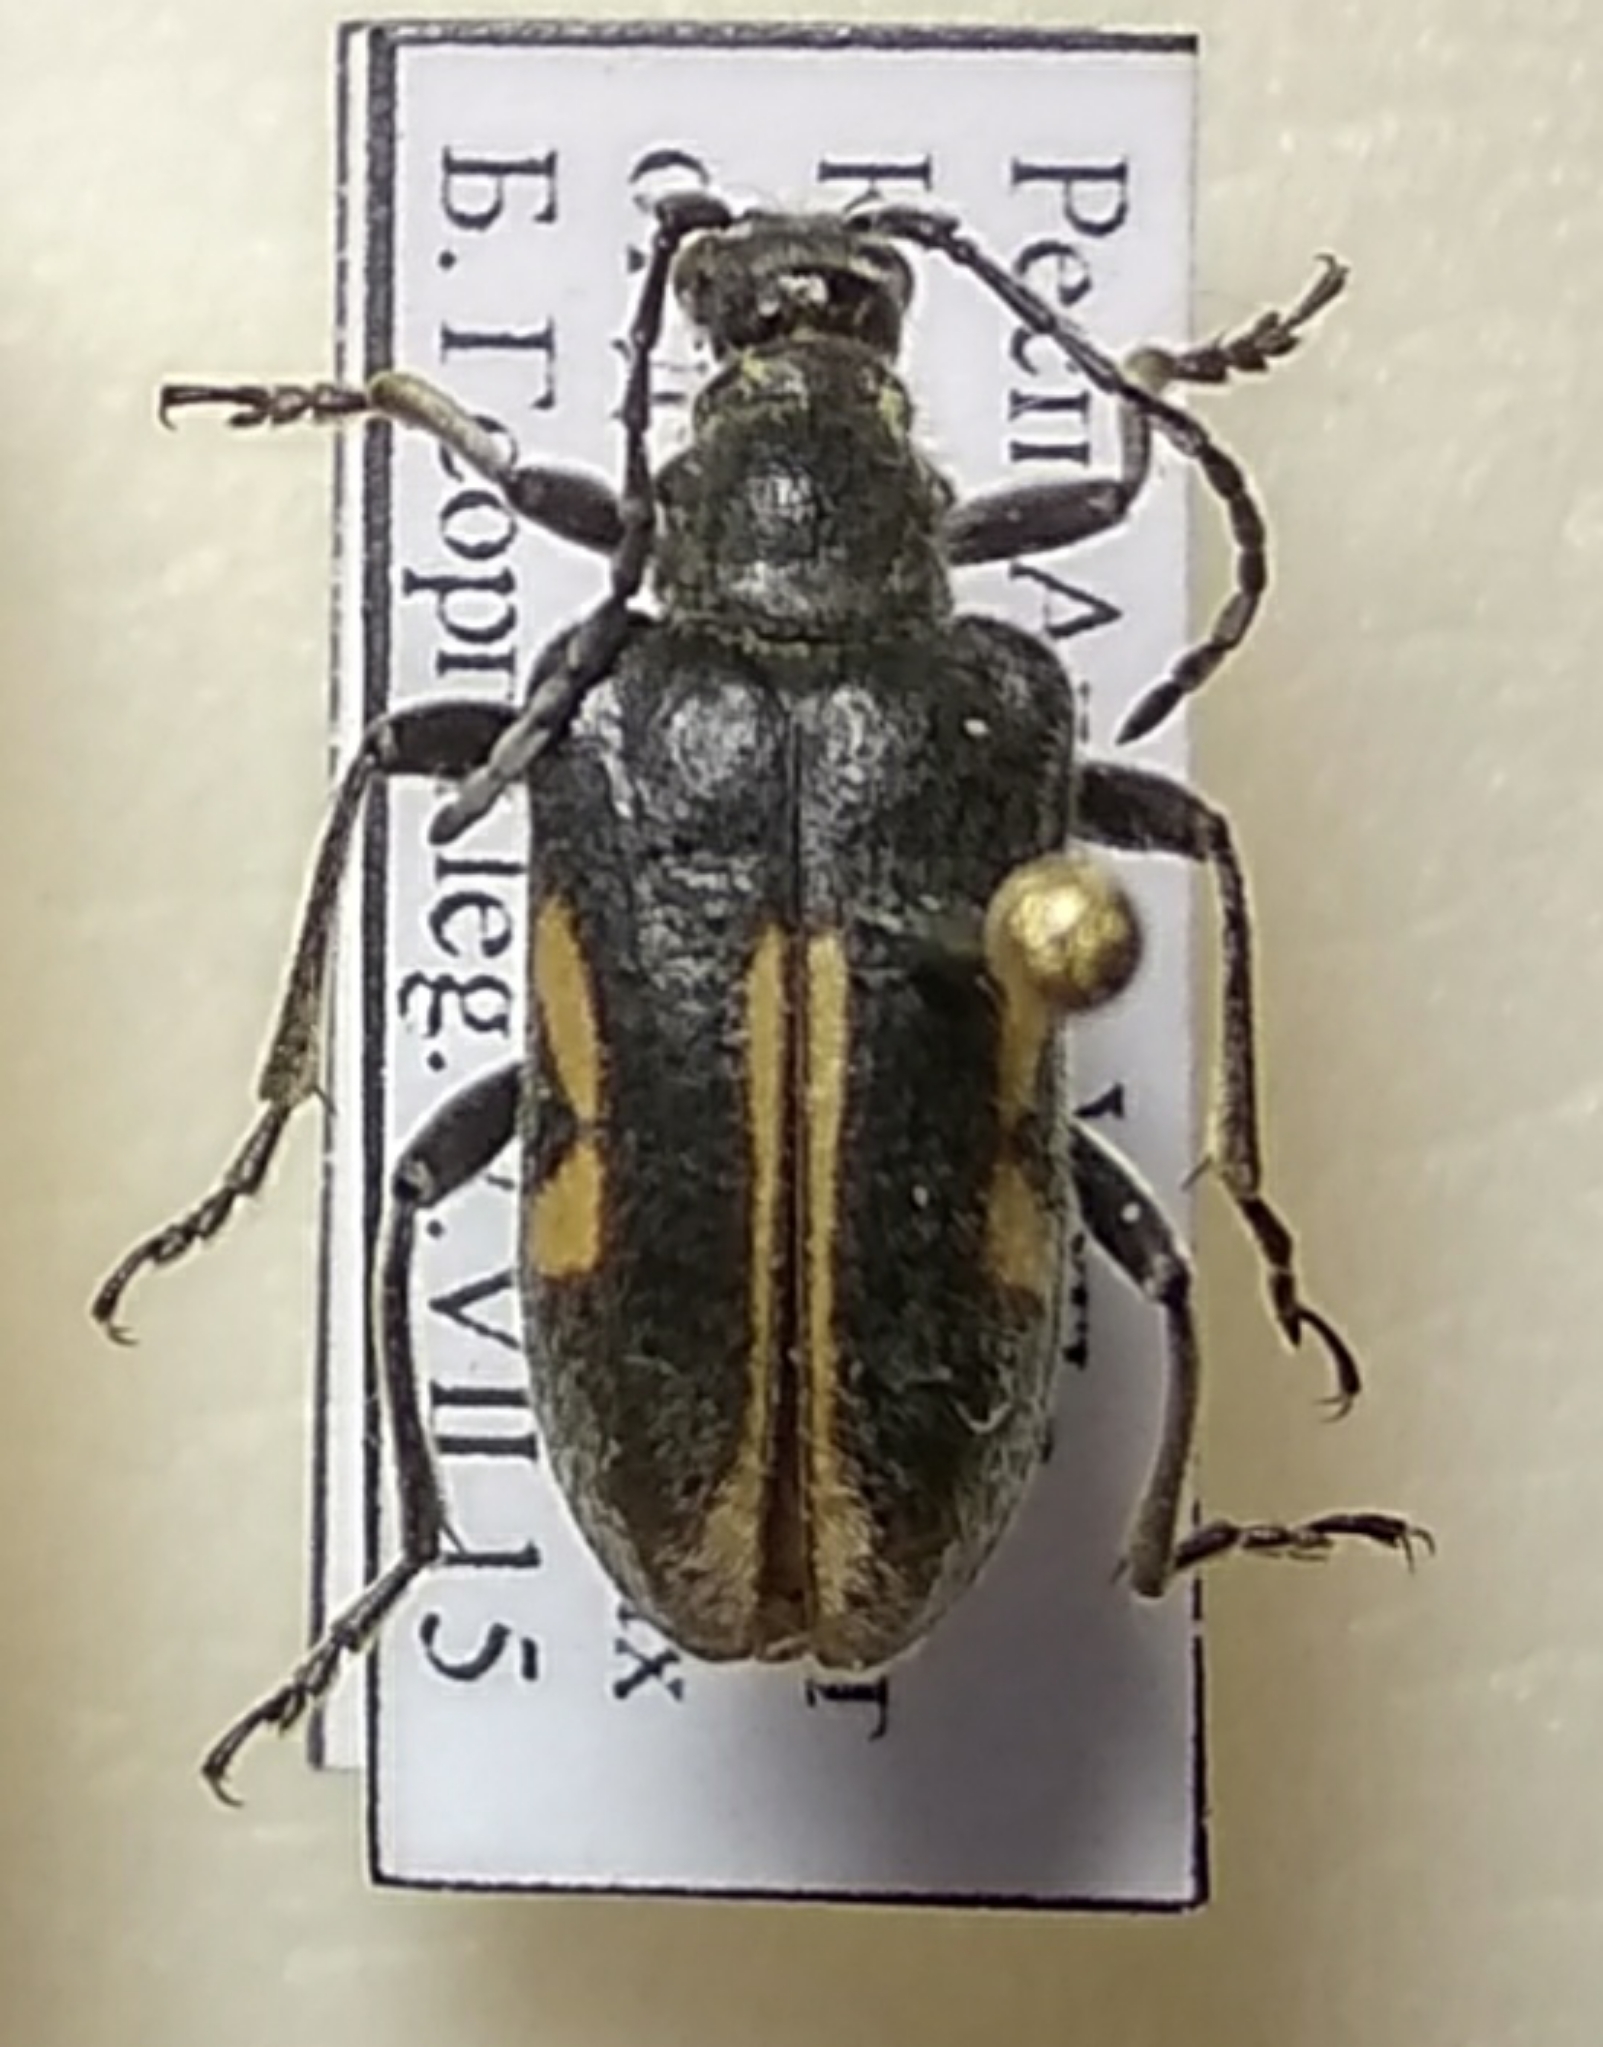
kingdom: Animalia
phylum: Arthropoda
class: Insecta
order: Coleoptera
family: Cerambycidae
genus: Brachyta
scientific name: Brachyta interrogationis
